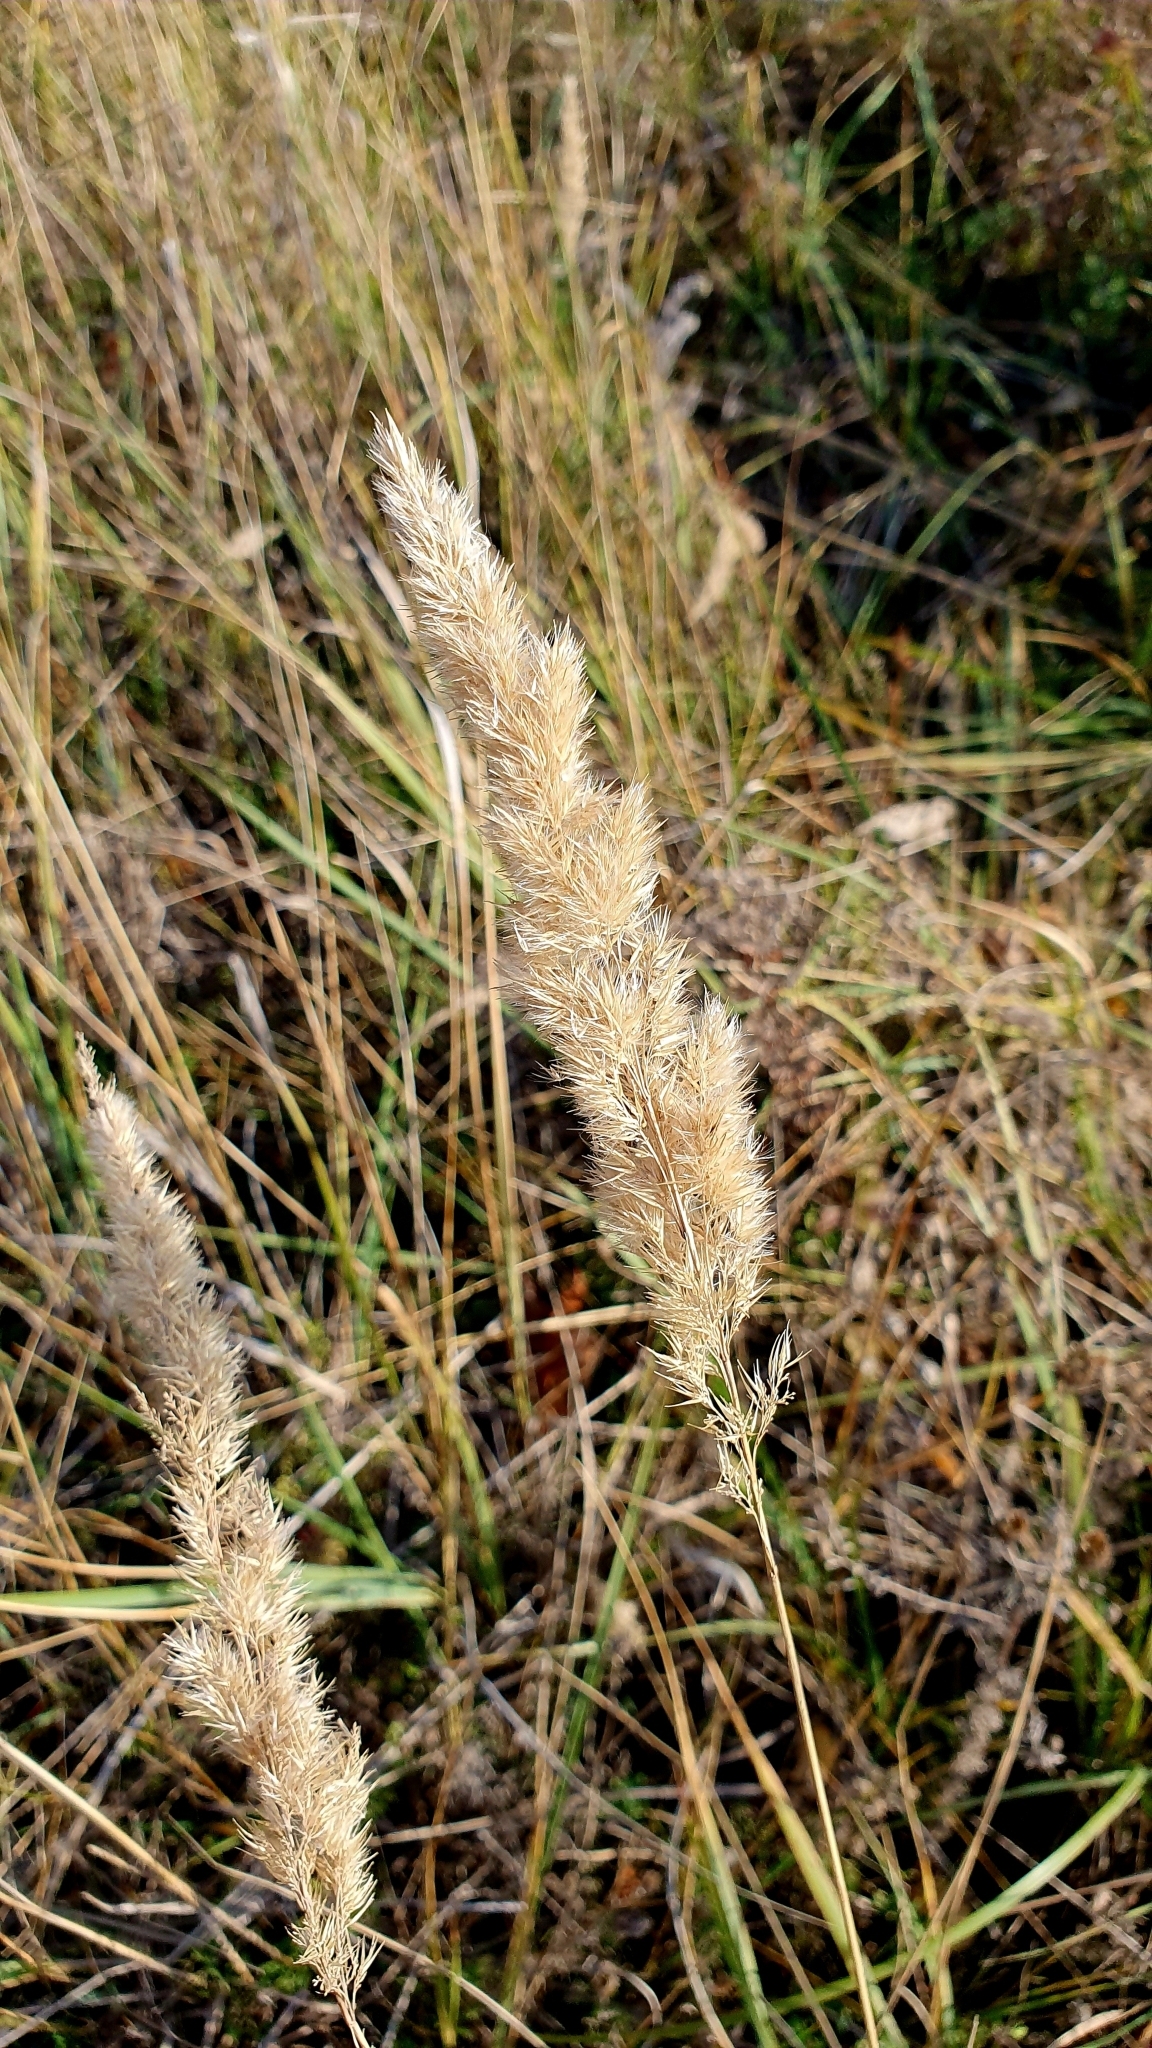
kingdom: Plantae
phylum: Tracheophyta
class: Liliopsida
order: Poales
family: Poaceae
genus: Calamagrostis
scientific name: Calamagrostis epigejos
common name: Wood small-reed
